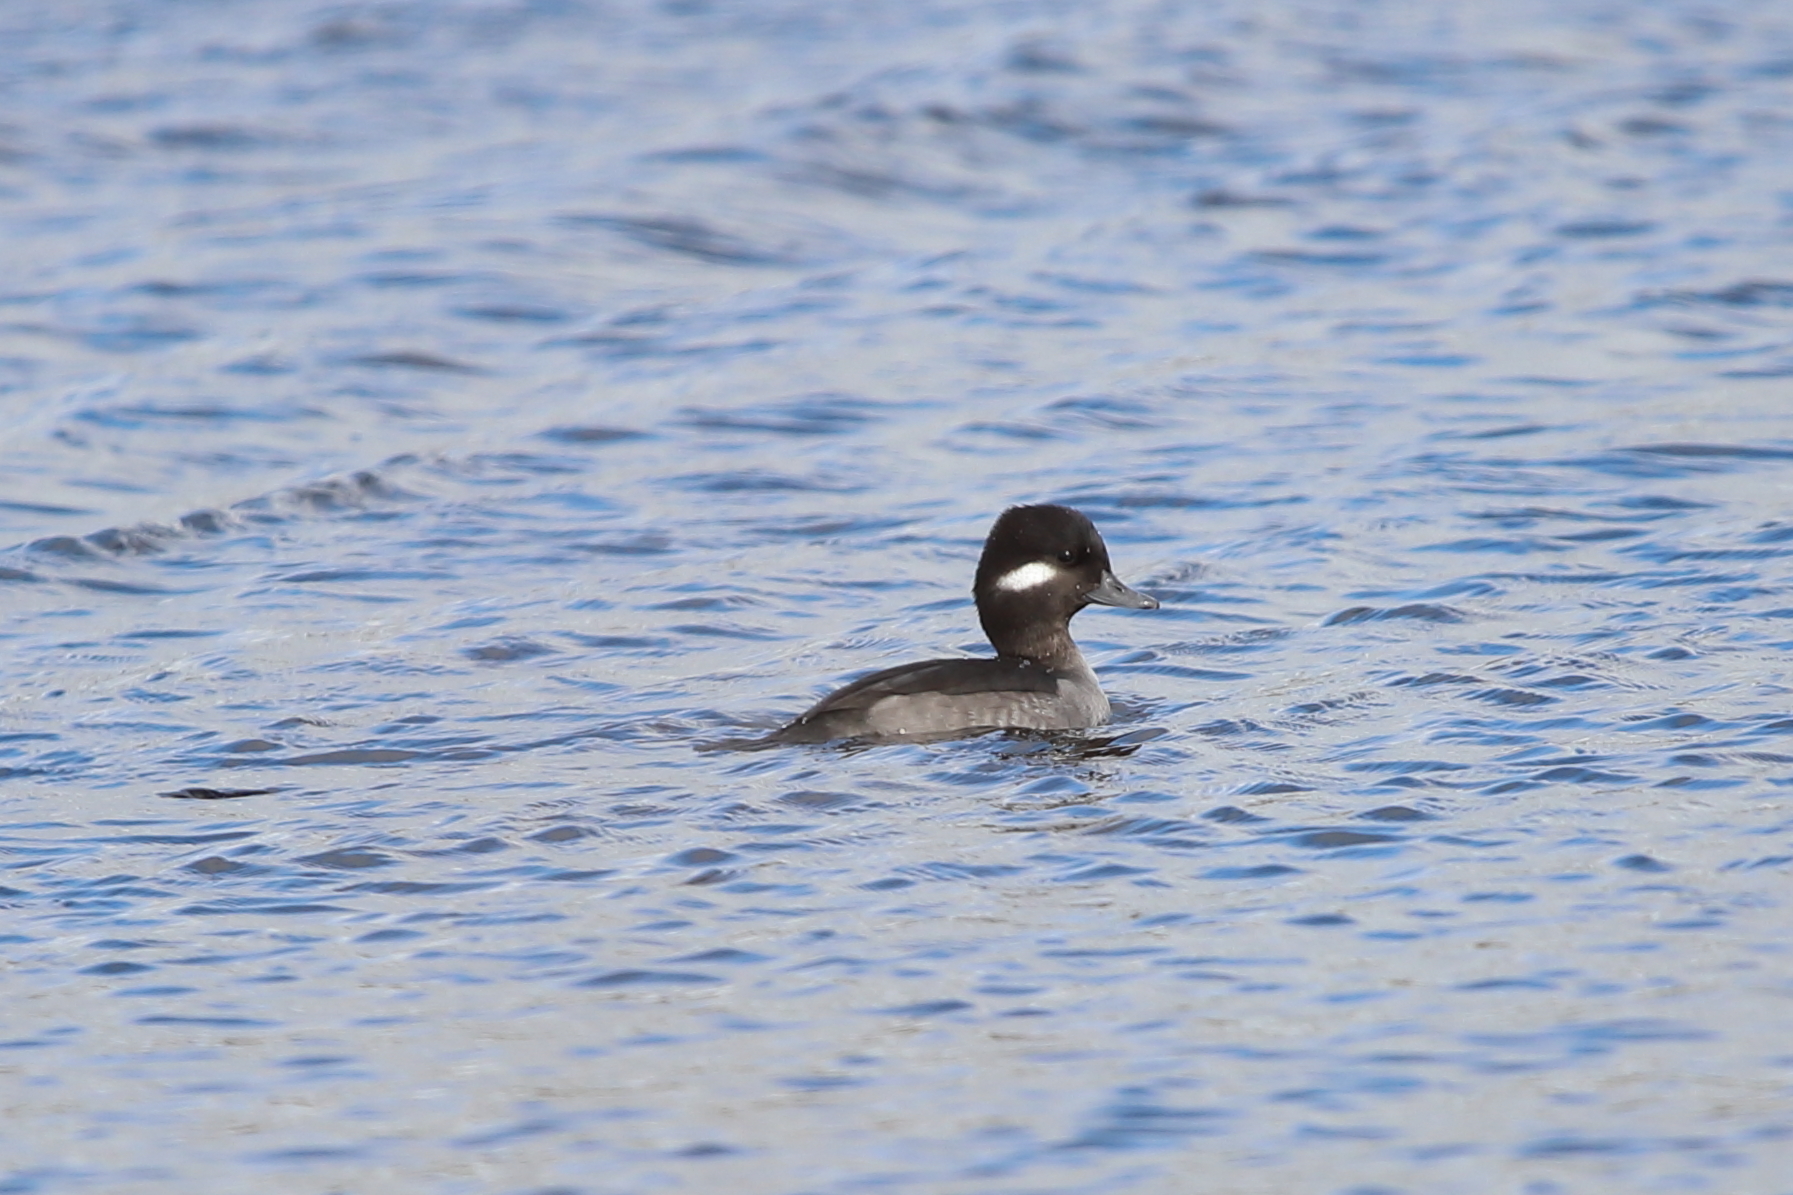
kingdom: Animalia
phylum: Chordata
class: Aves
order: Anseriformes
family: Anatidae
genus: Bucephala
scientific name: Bucephala albeola
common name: Bufflehead
